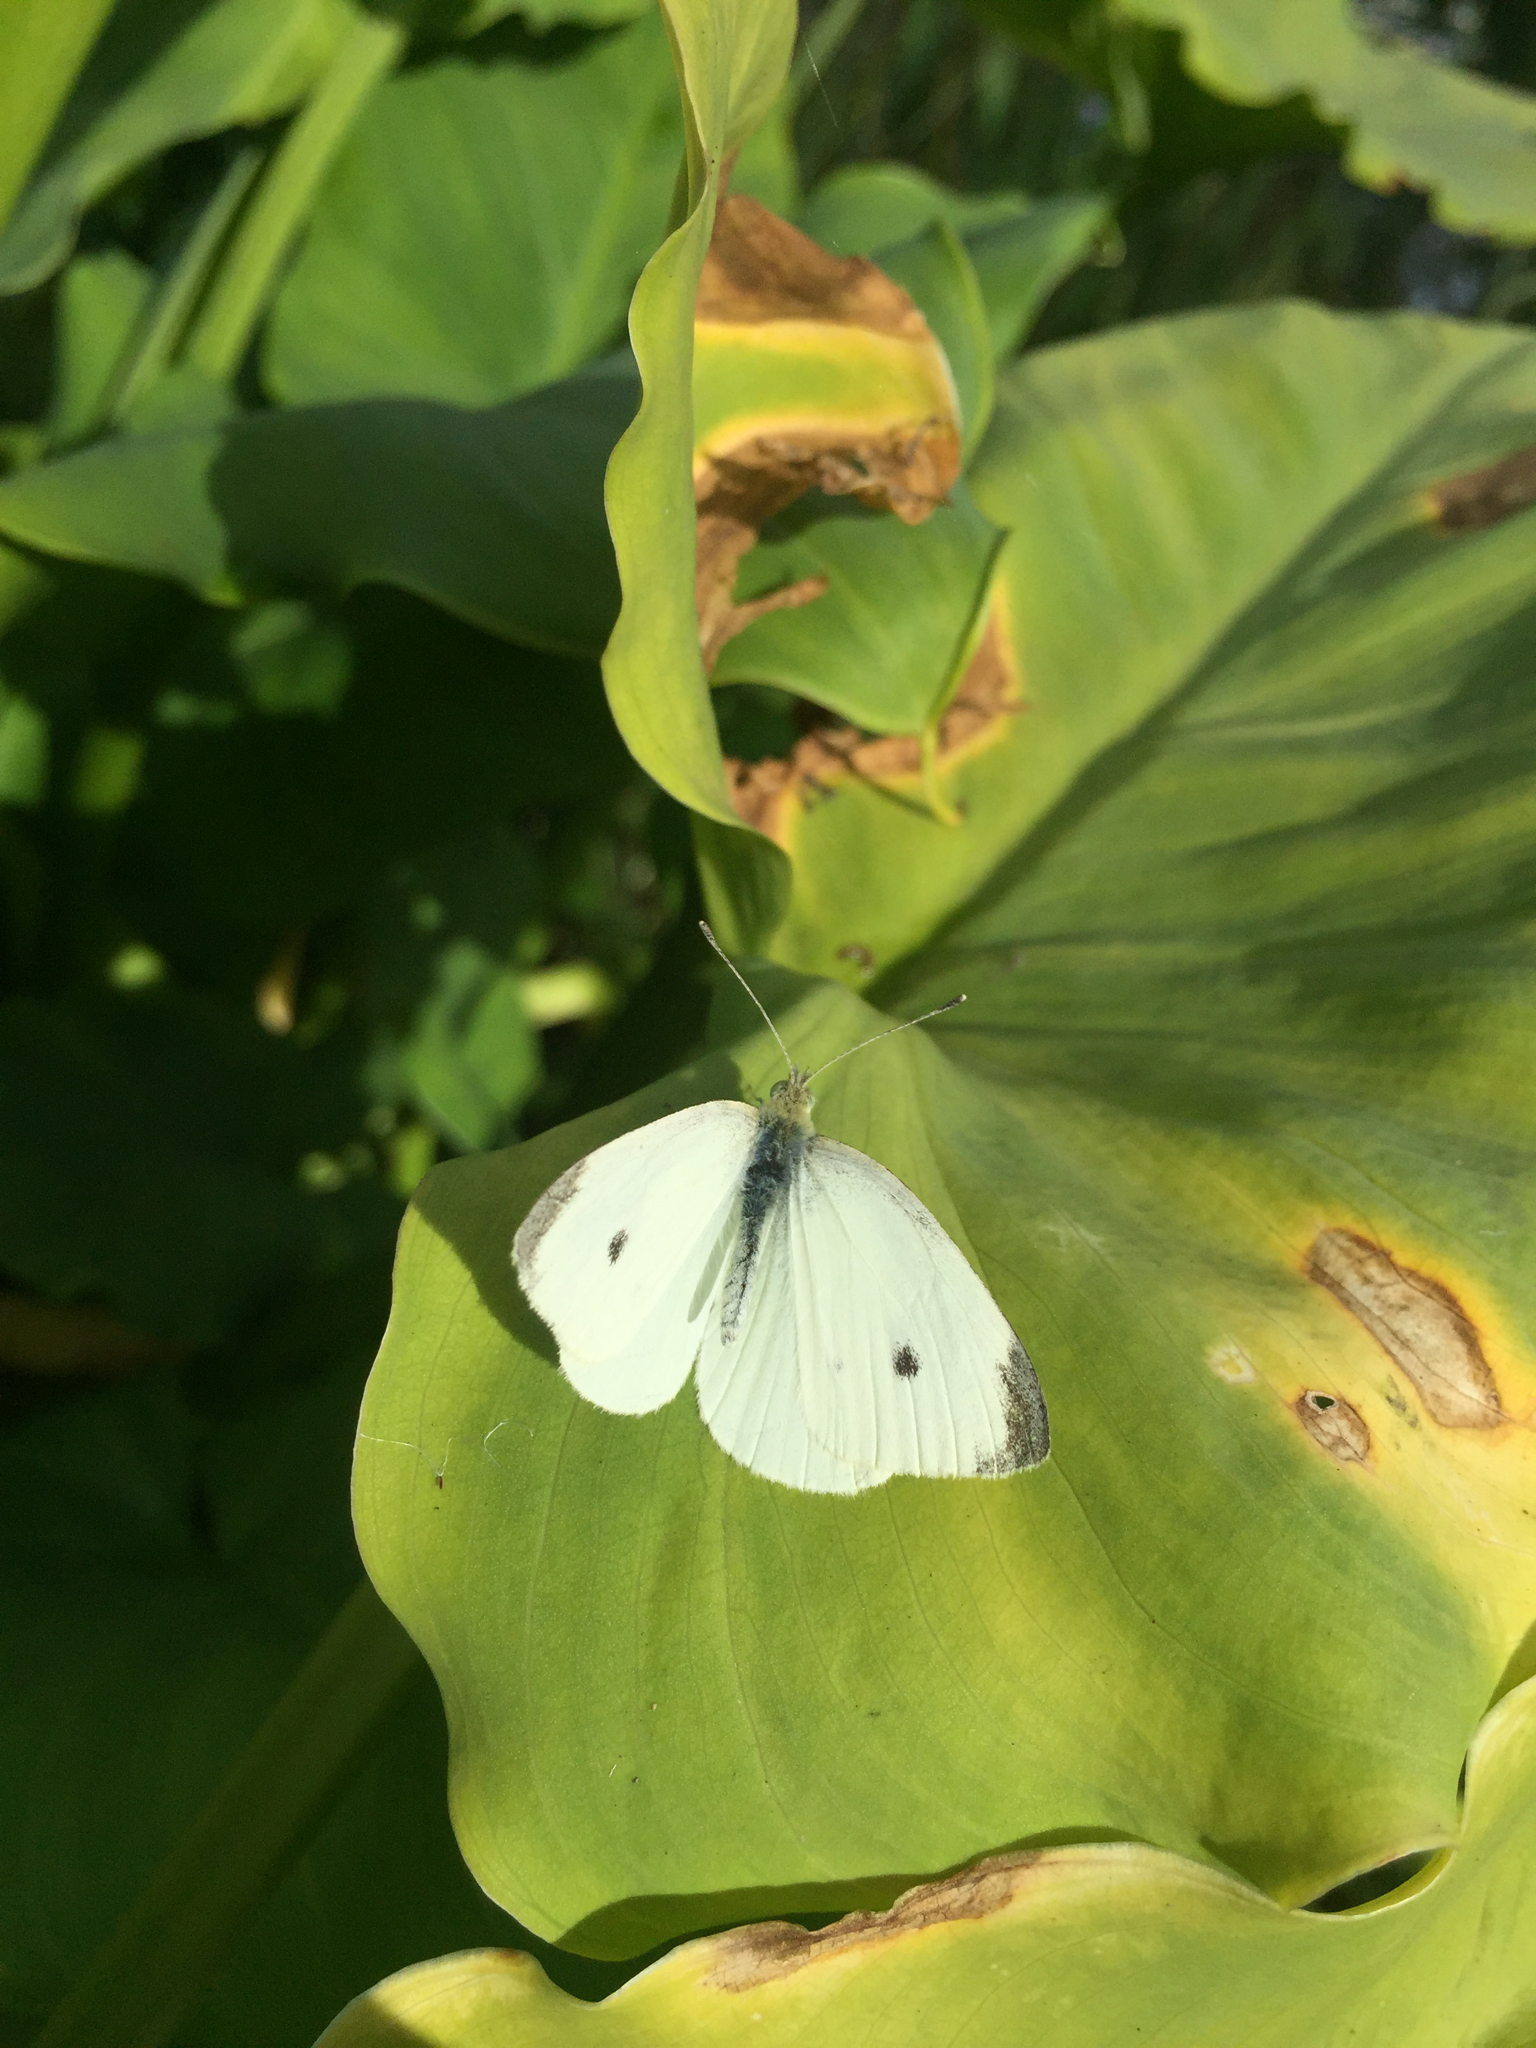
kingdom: Animalia
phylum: Arthropoda
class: Insecta
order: Lepidoptera
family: Pieridae
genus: Pieris
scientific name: Pieris rapae
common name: Small white
